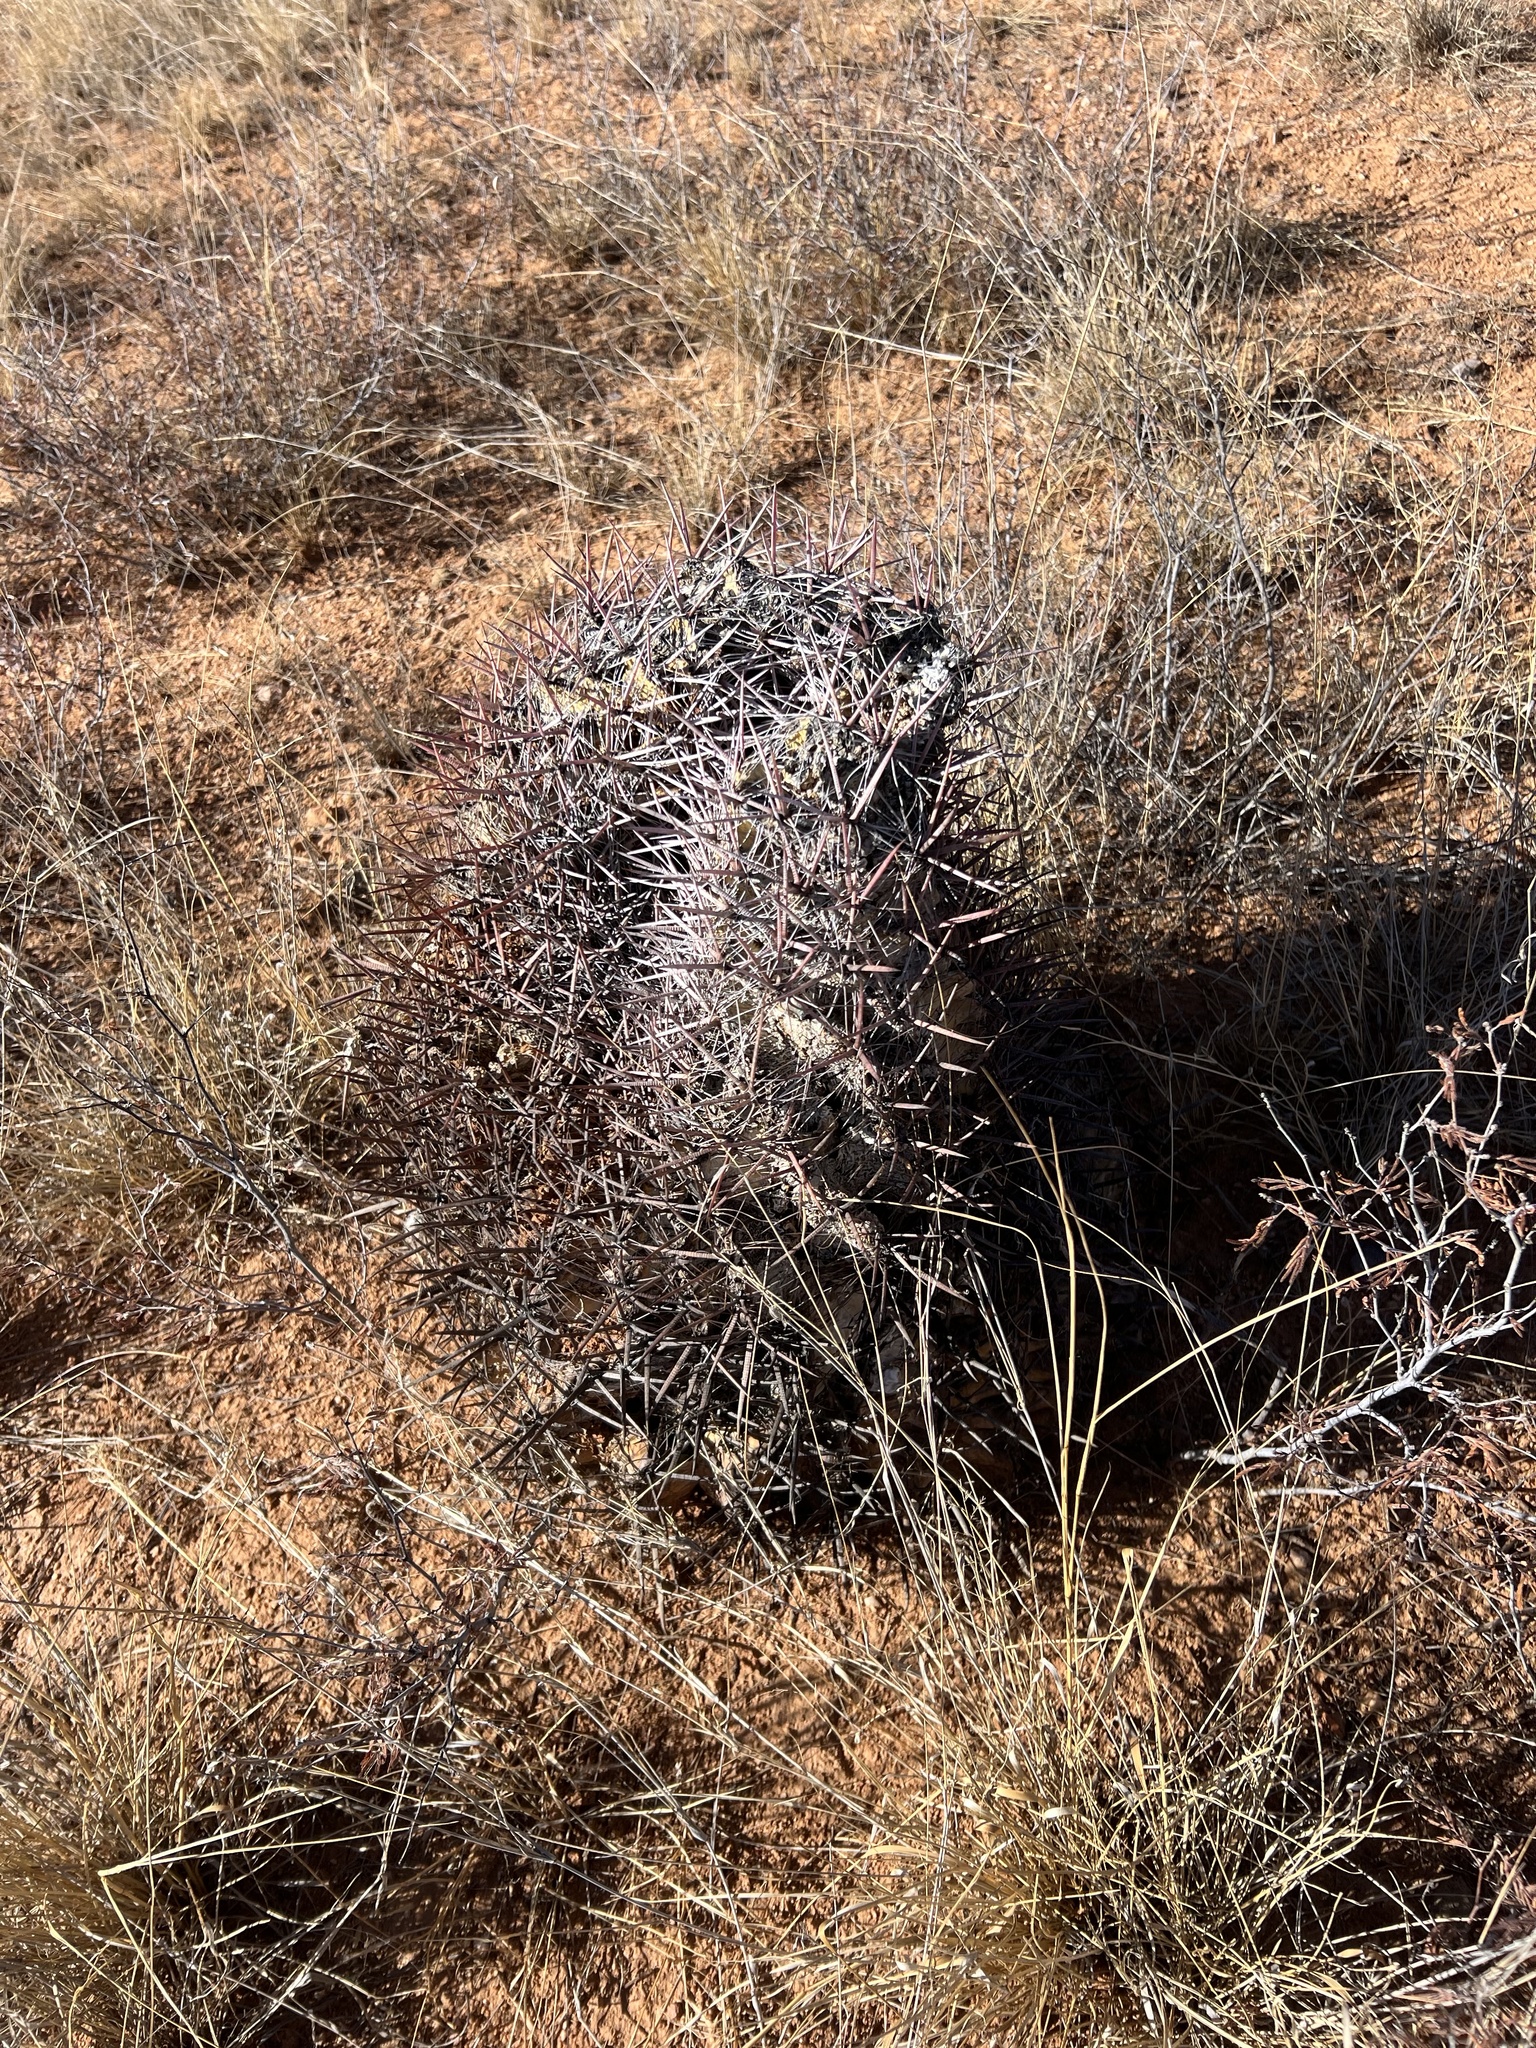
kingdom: Plantae
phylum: Tracheophyta
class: Magnoliopsida
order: Caryophyllales
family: Cactaceae
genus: Ferocactus
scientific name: Ferocactus wislizeni
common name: Candy barrel cactus
